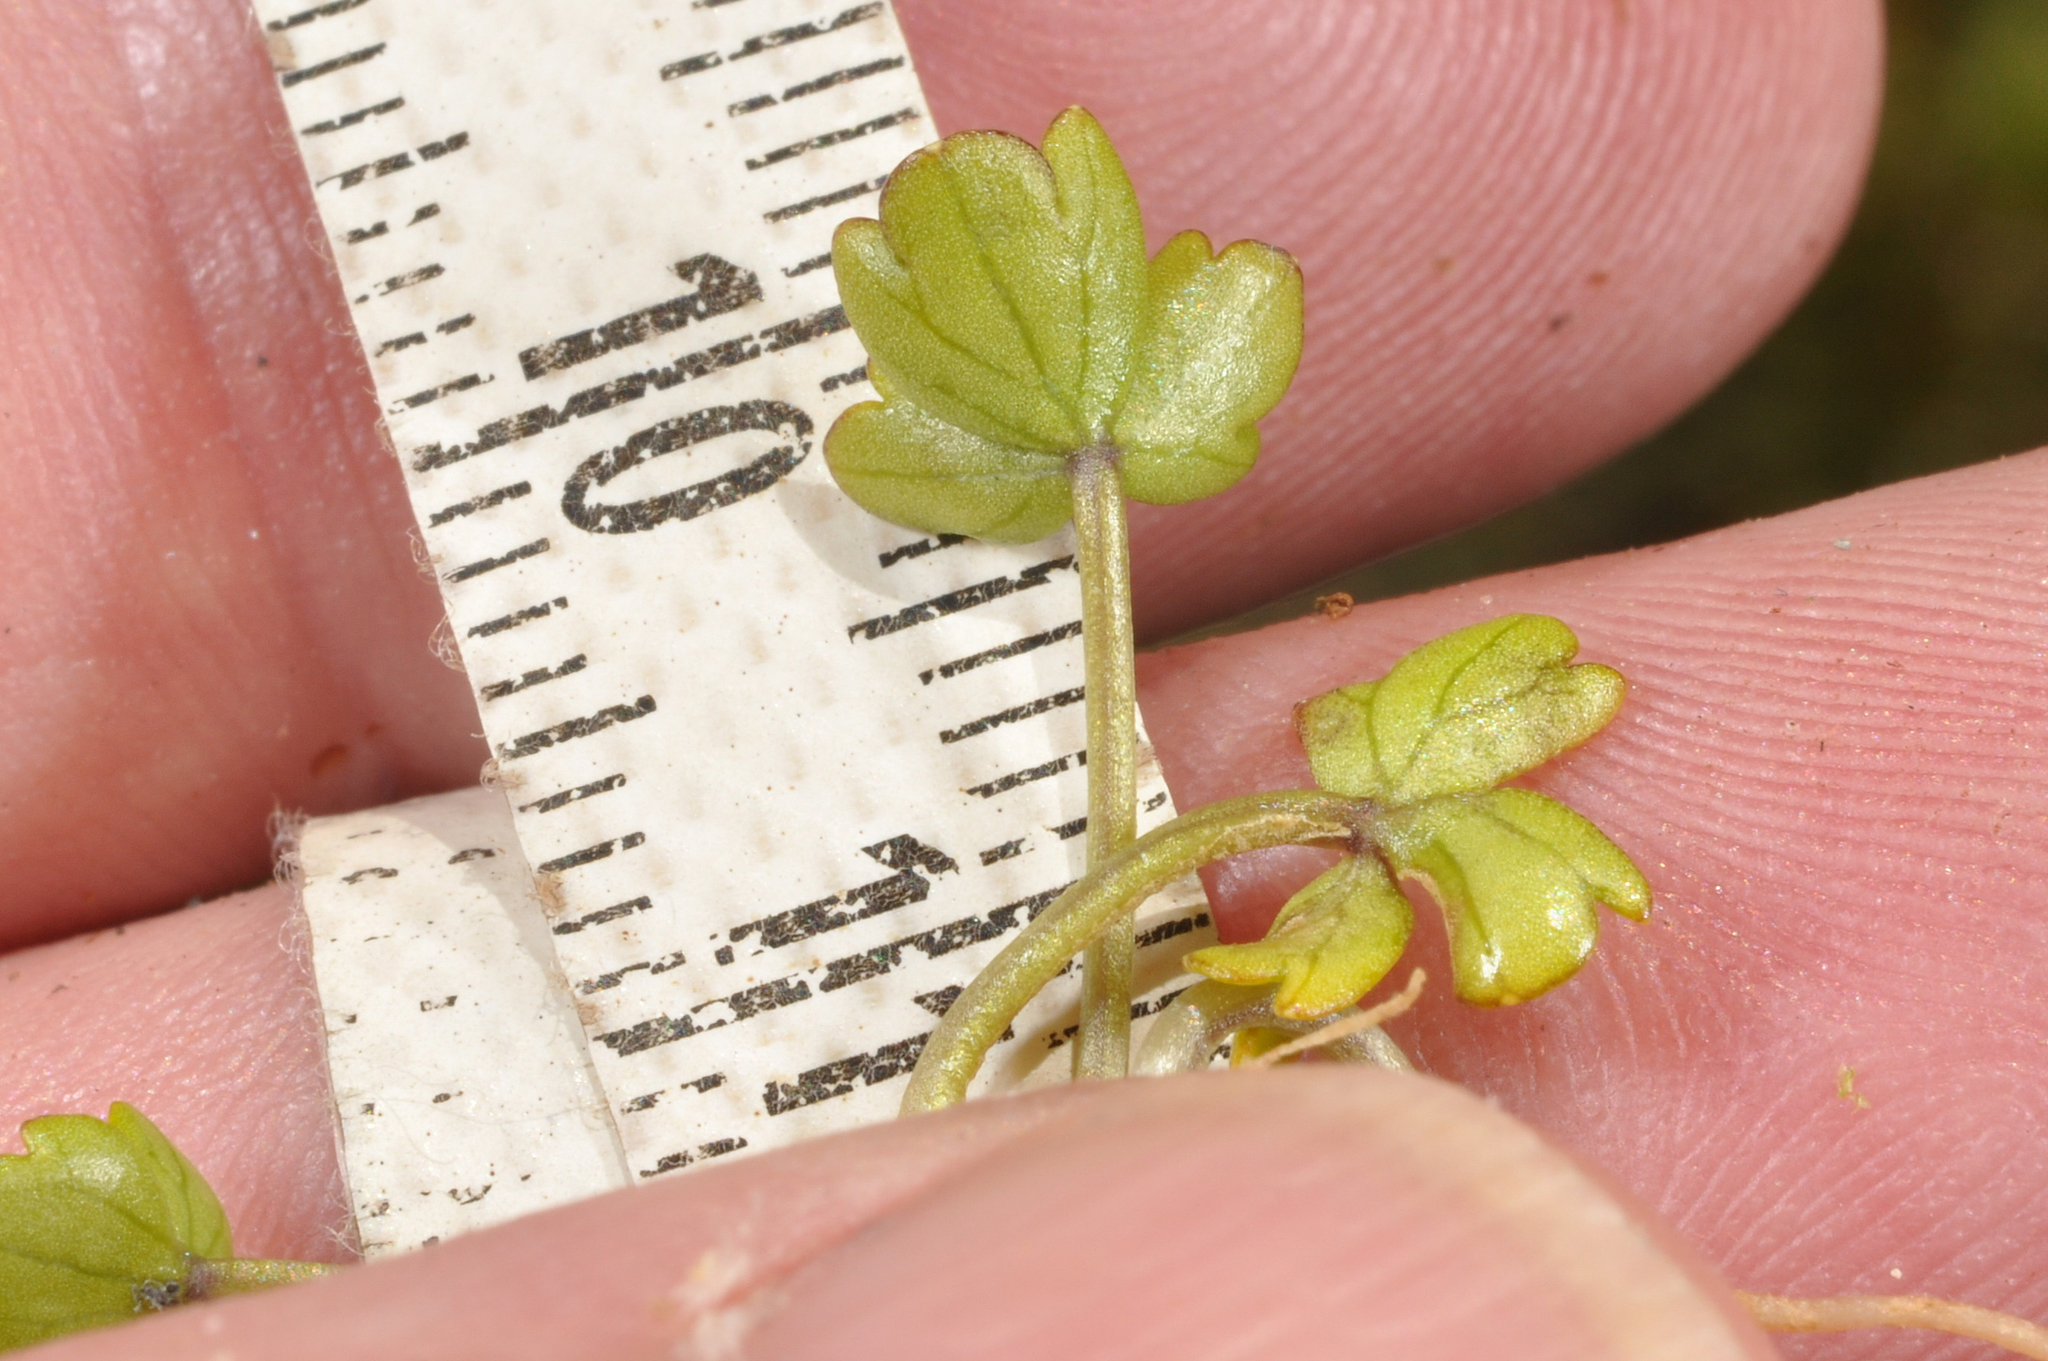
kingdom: Plantae
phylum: Tracheophyta
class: Magnoliopsida
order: Apiales
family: Apiaceae
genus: Azorella
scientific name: Azorella pallida
